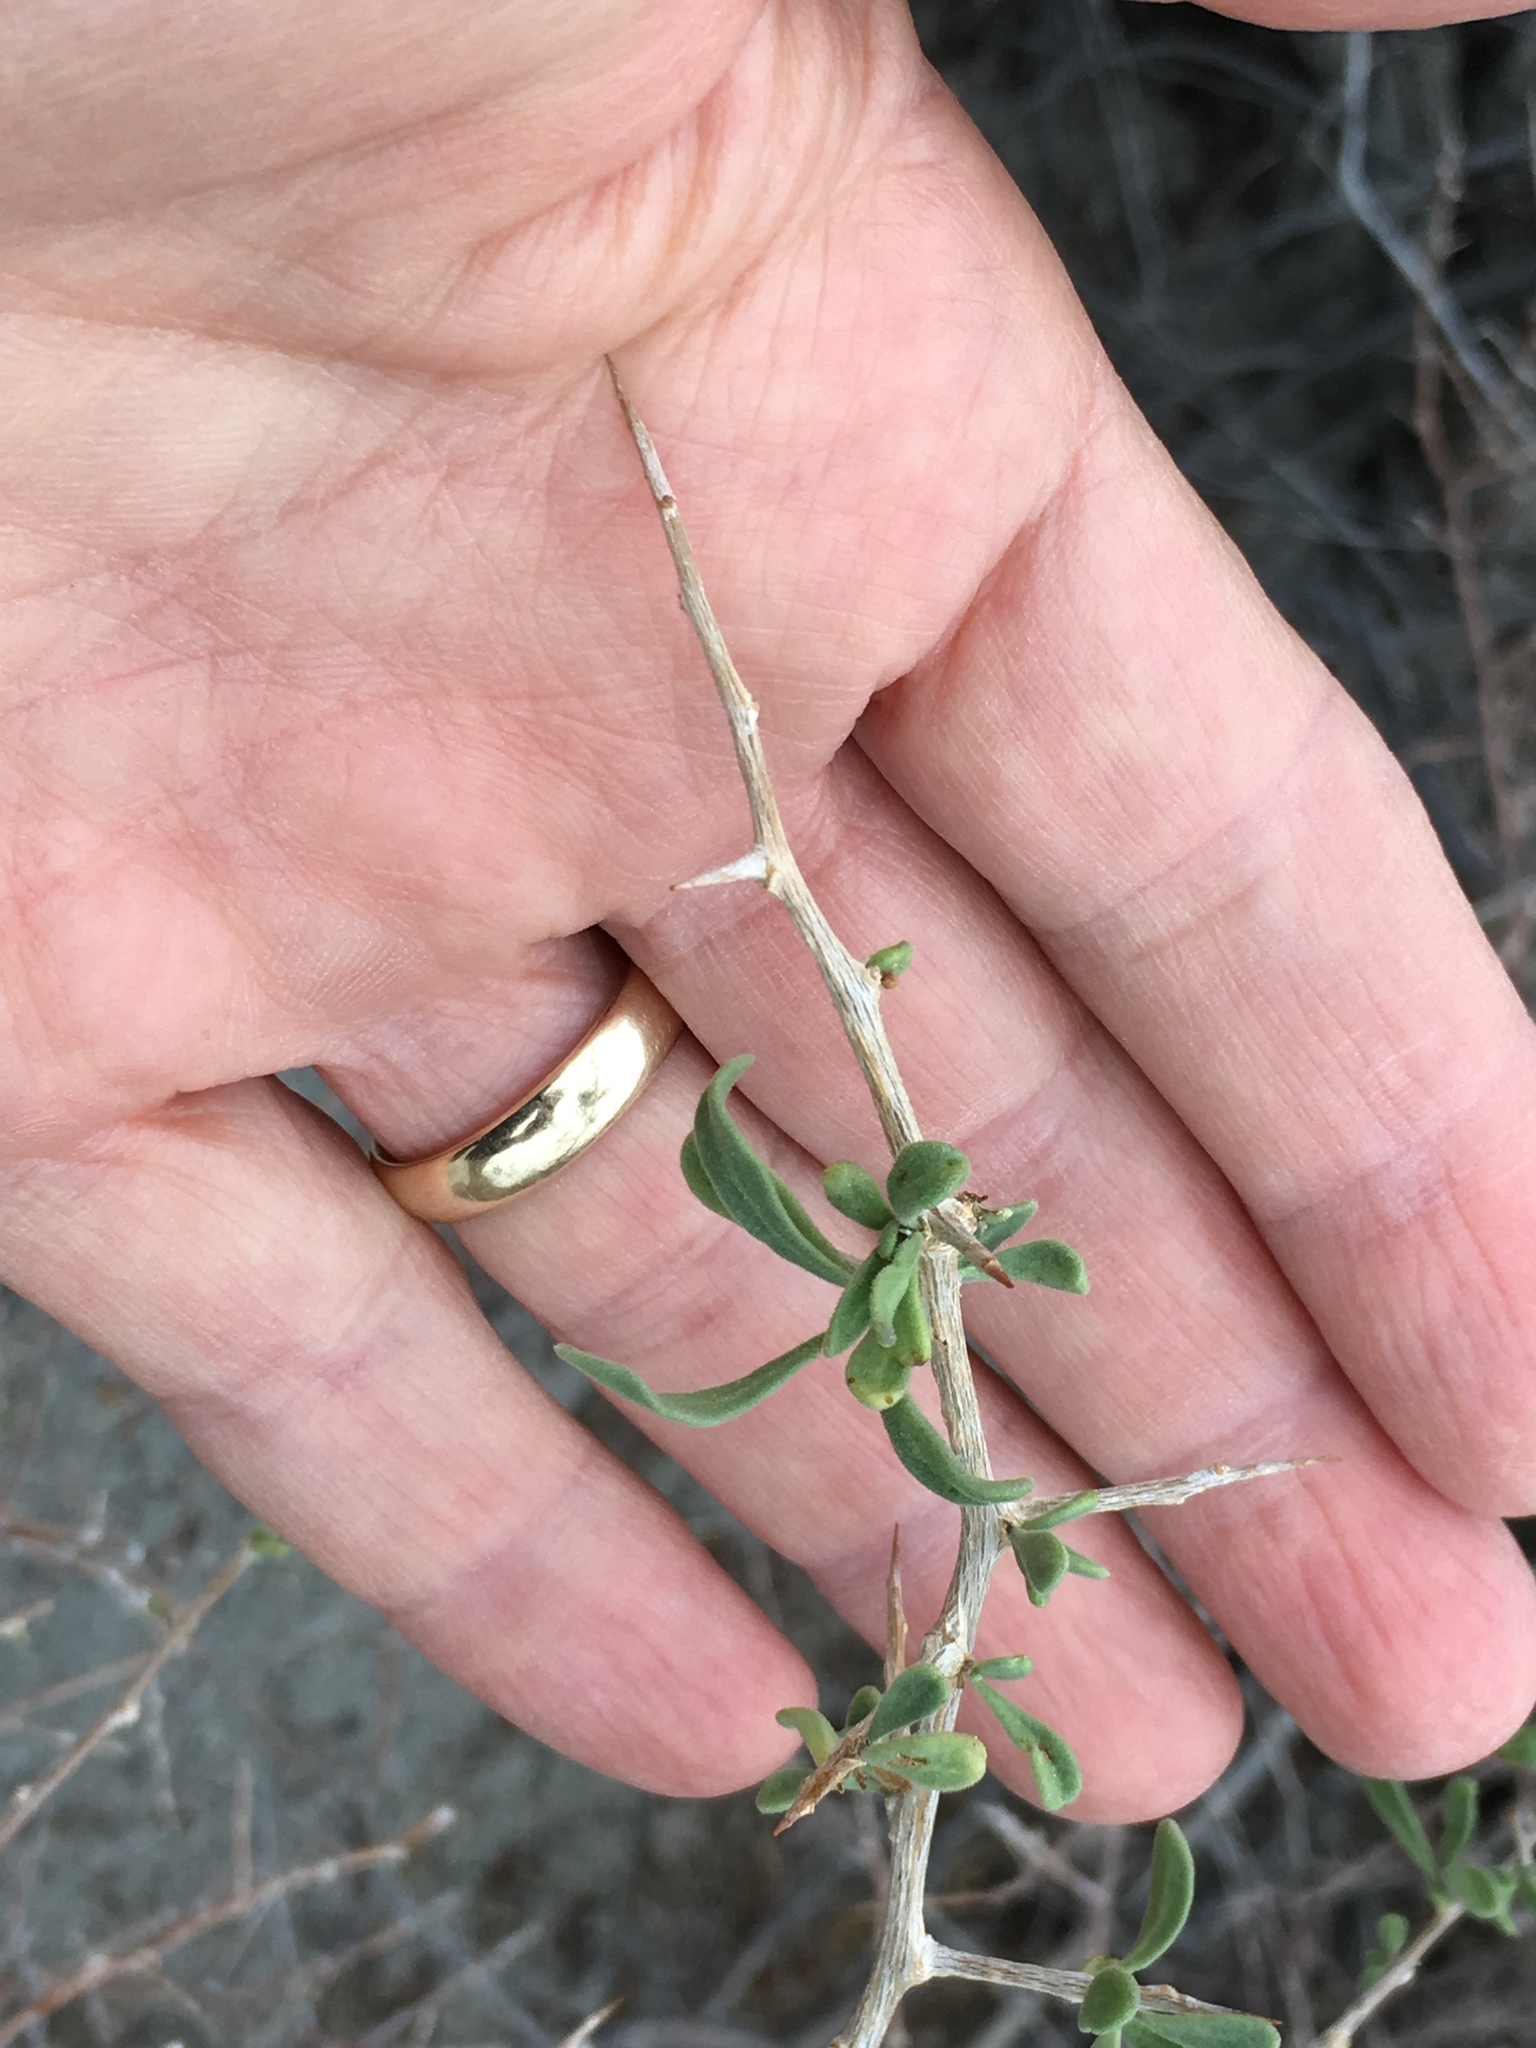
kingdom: Plantae
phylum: Tracheophyta
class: Magnoliopsida
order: Fabales
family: Fabaceae
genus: Psorothamnus
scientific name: Psorothamnus spinosus
